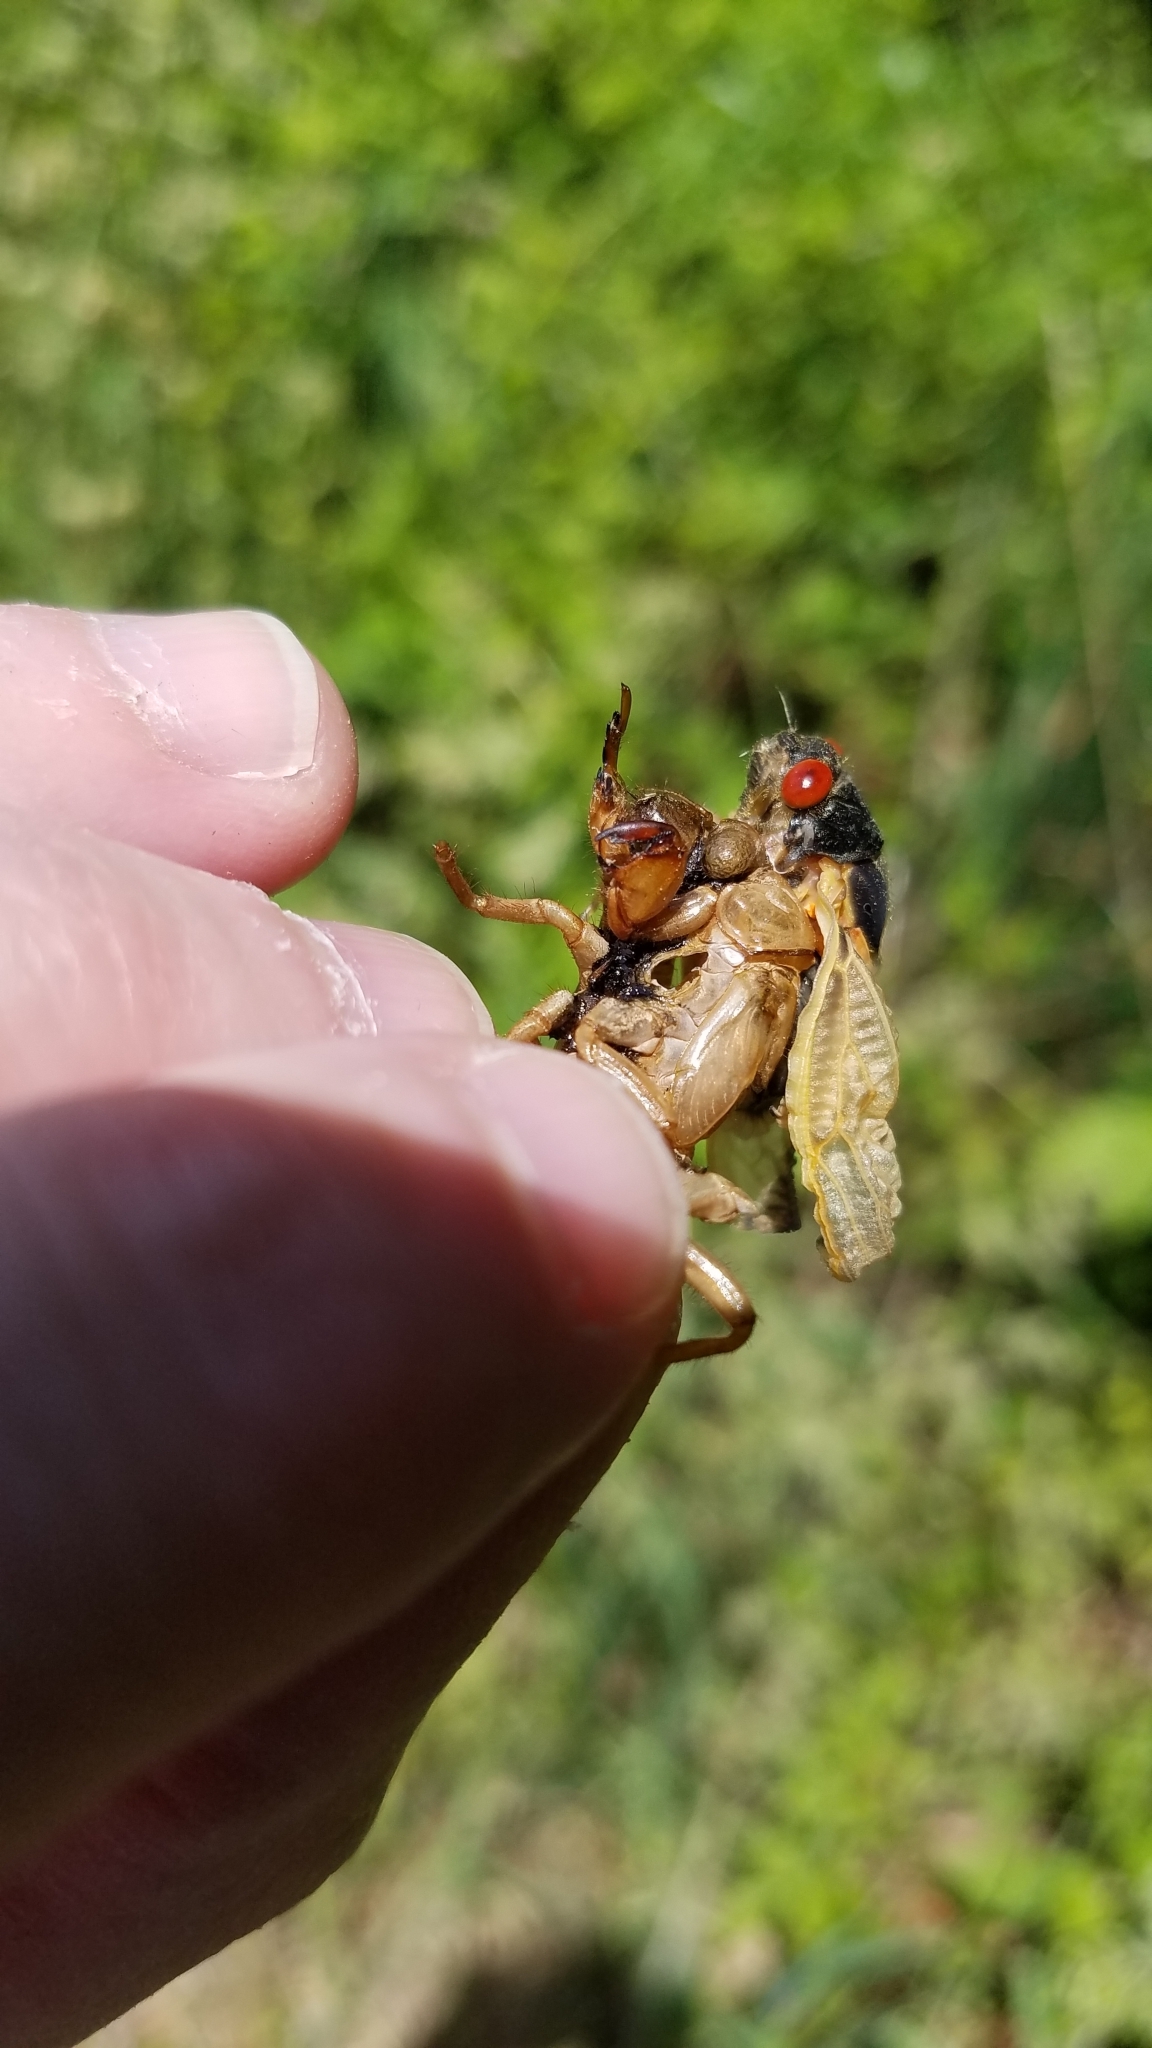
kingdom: Animalia
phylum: Arthropoda
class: Insecta
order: Hemiptera
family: Cicadidae
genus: Magicicada
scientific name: Magicicada
